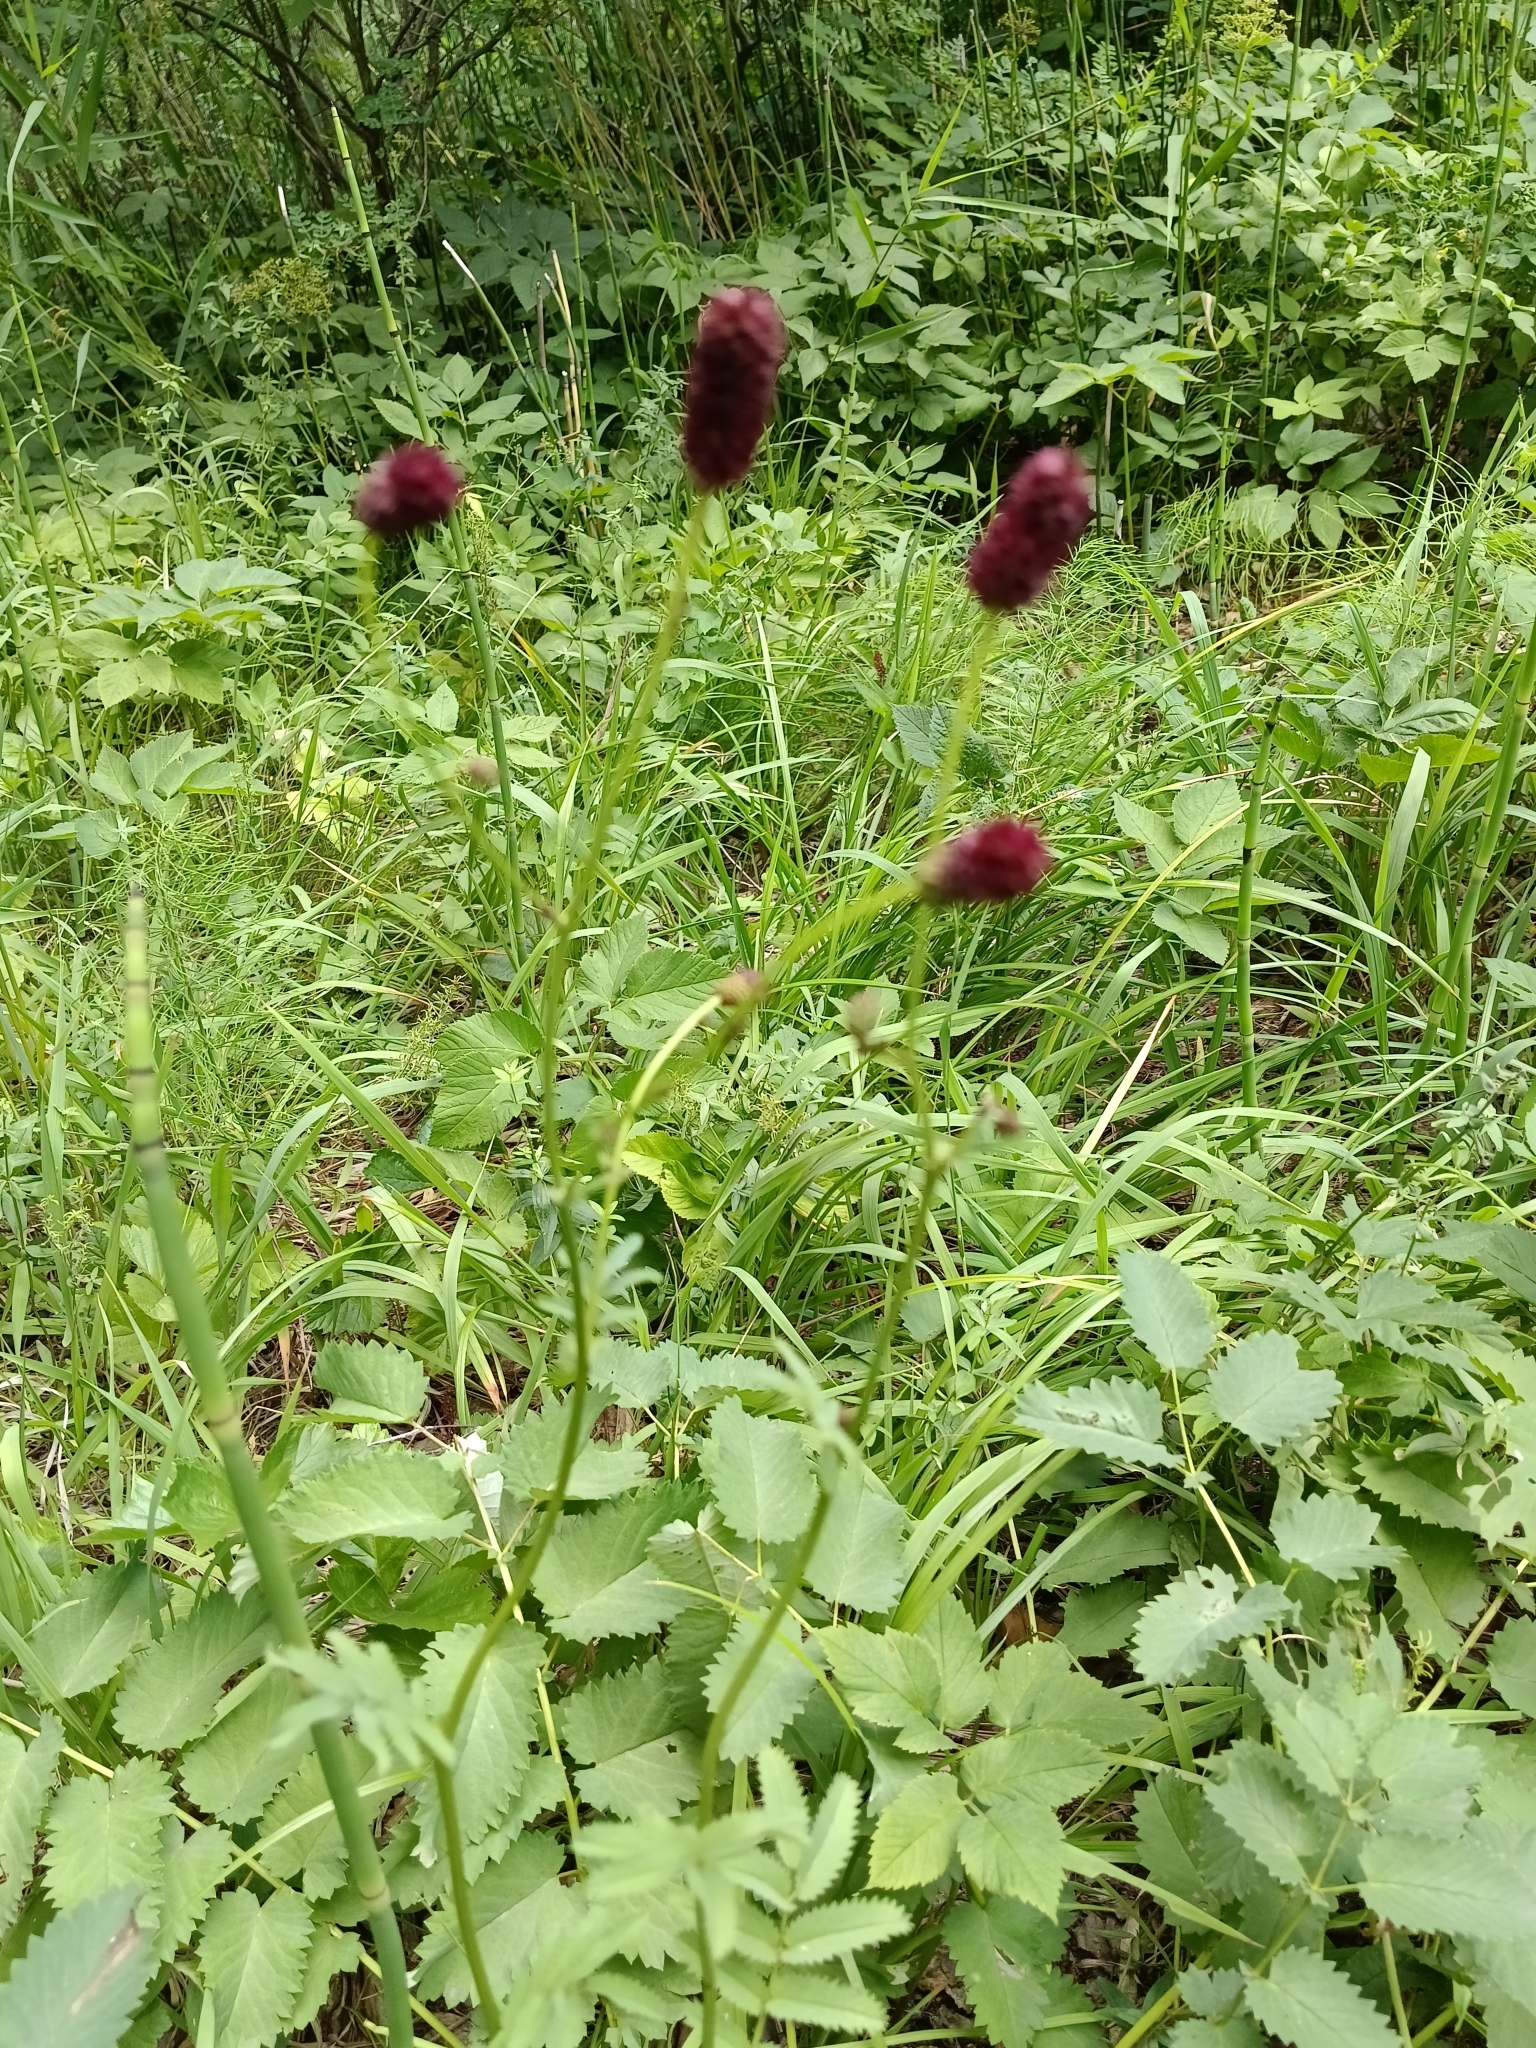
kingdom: Plantae
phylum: Tracheophyta
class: Magnoliopsida
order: Rosales
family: Rosaceae
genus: Sanguisorba
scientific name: Sanguisorba officinalis
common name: Great burnet
